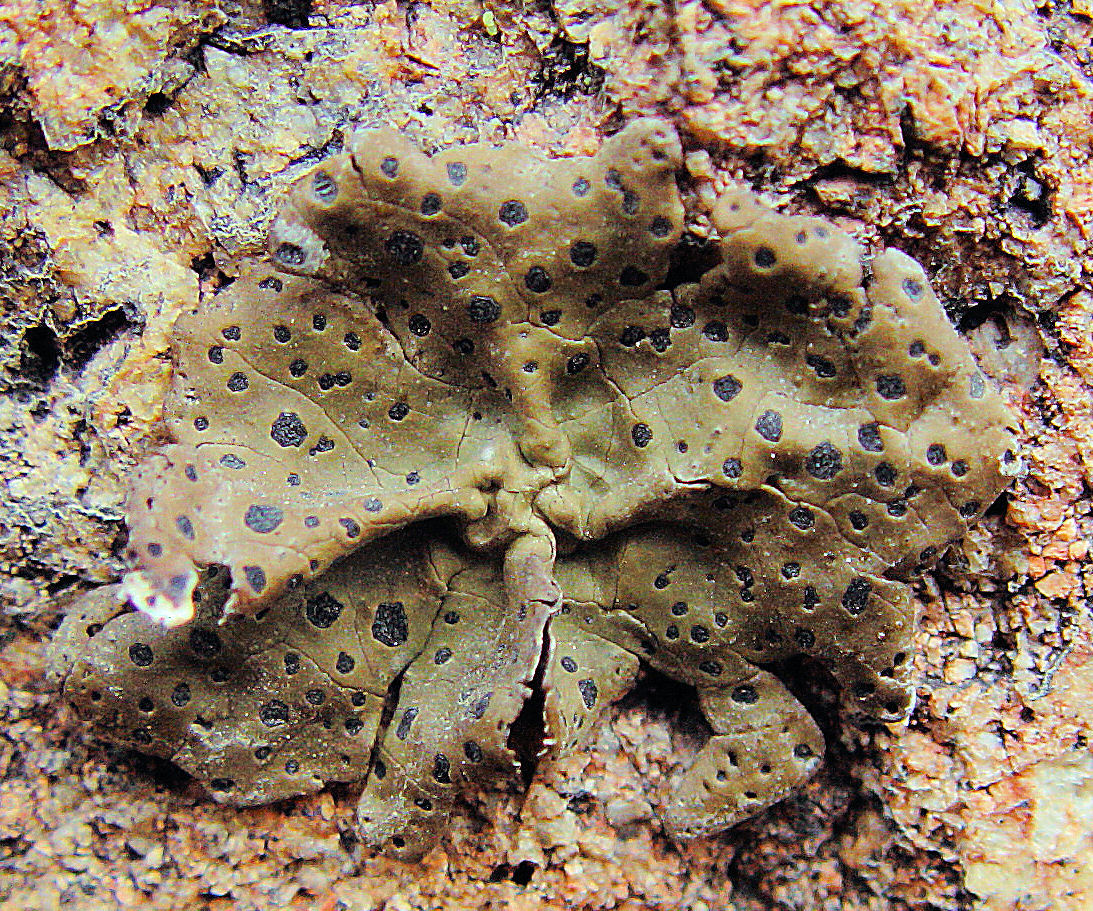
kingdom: Fungi
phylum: Ascomycota
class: Lecanoromycetes
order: Umbilicariales
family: Umbilicariaceae
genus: Umbilicaria
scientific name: Umbilicaria phaea
